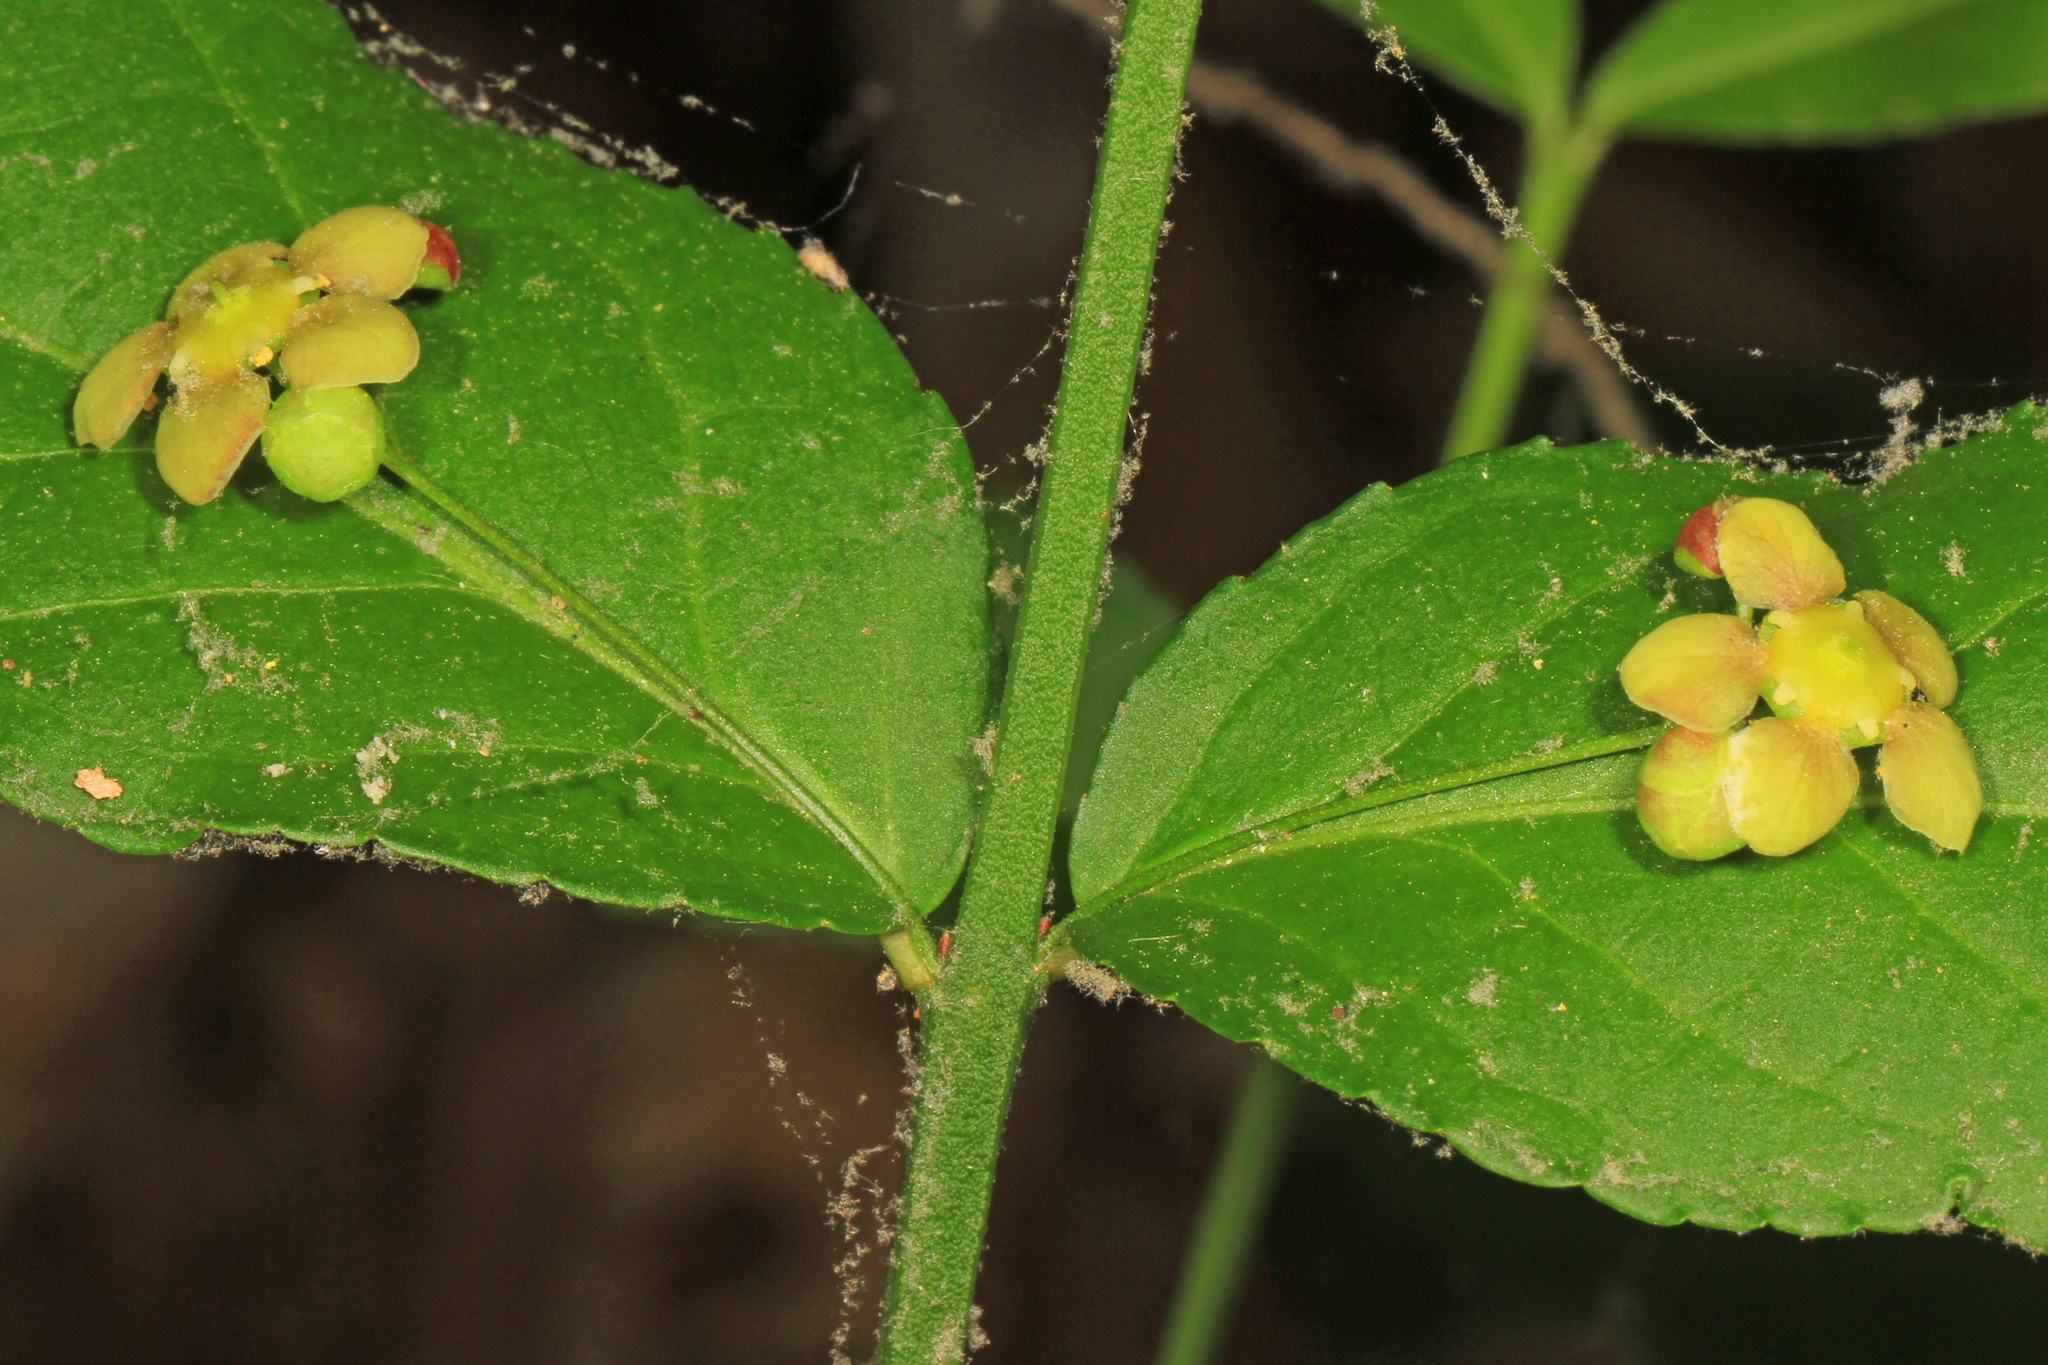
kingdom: Plantae
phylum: Tracheophyta
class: Magnoliopsida
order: Celastrales
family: Celastraceae
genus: Euonymus
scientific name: Euonymus americanus
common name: Bursting-heart
